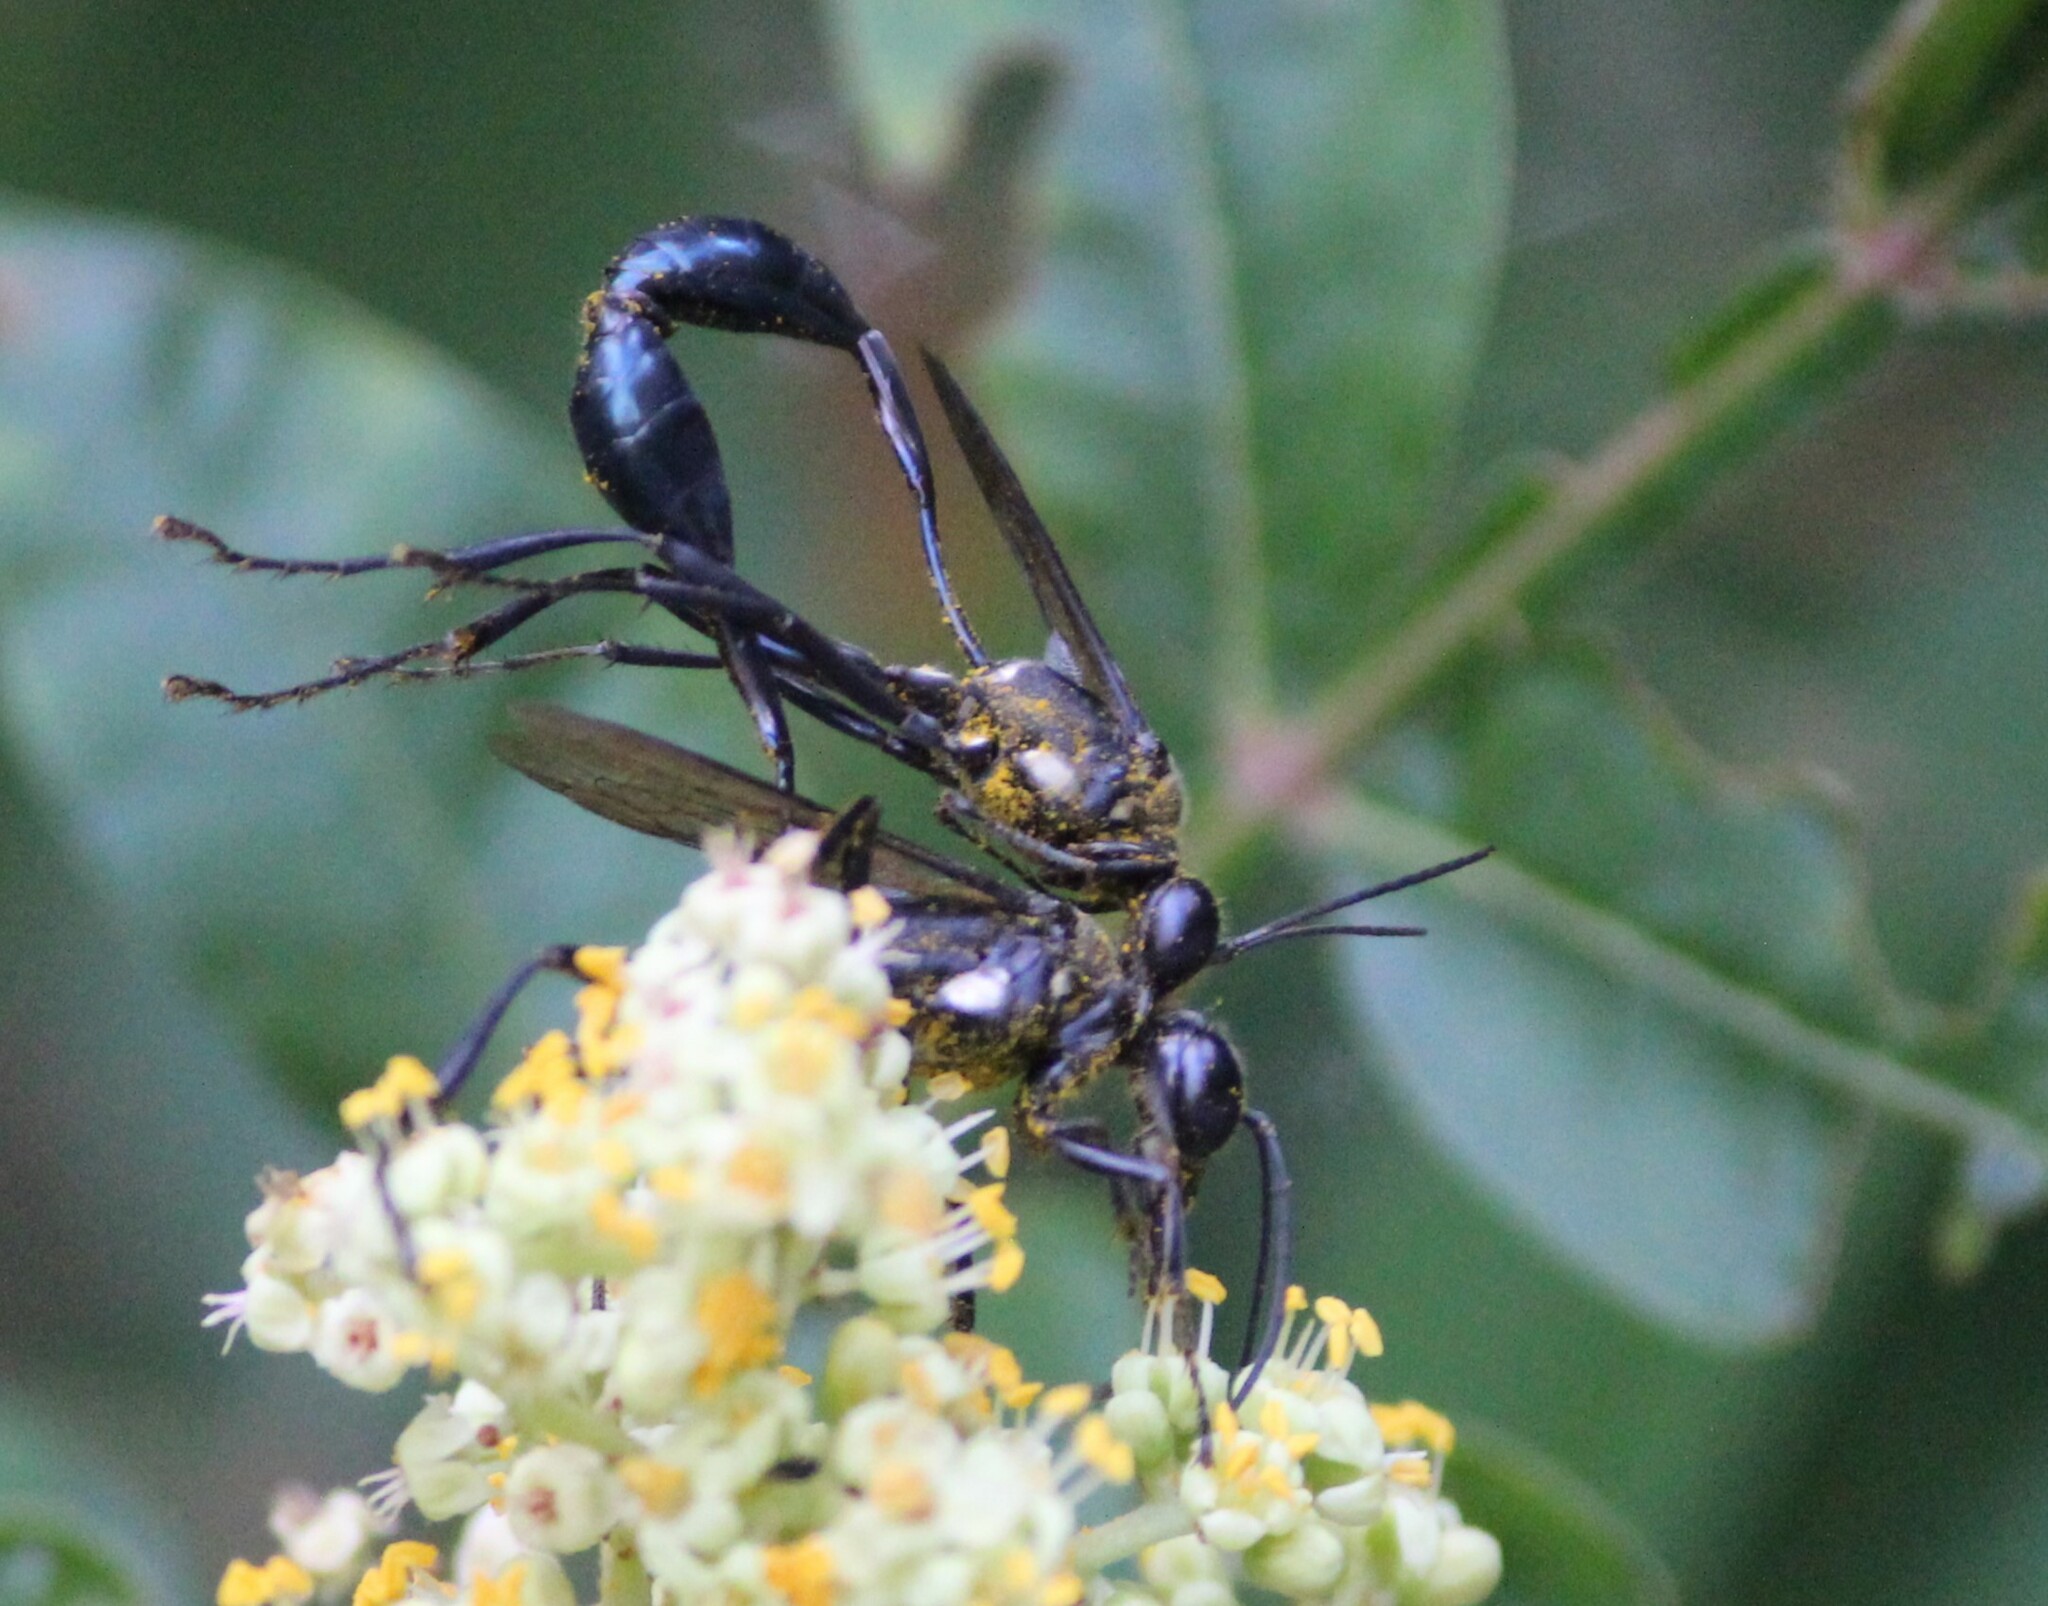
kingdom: Animalia
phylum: Arthropoda
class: Insecta
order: Hymenoptera
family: Sphecidae
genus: Eremnophila
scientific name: Eremnophila aureonotata
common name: Gold-marked thread-waisted wasp
